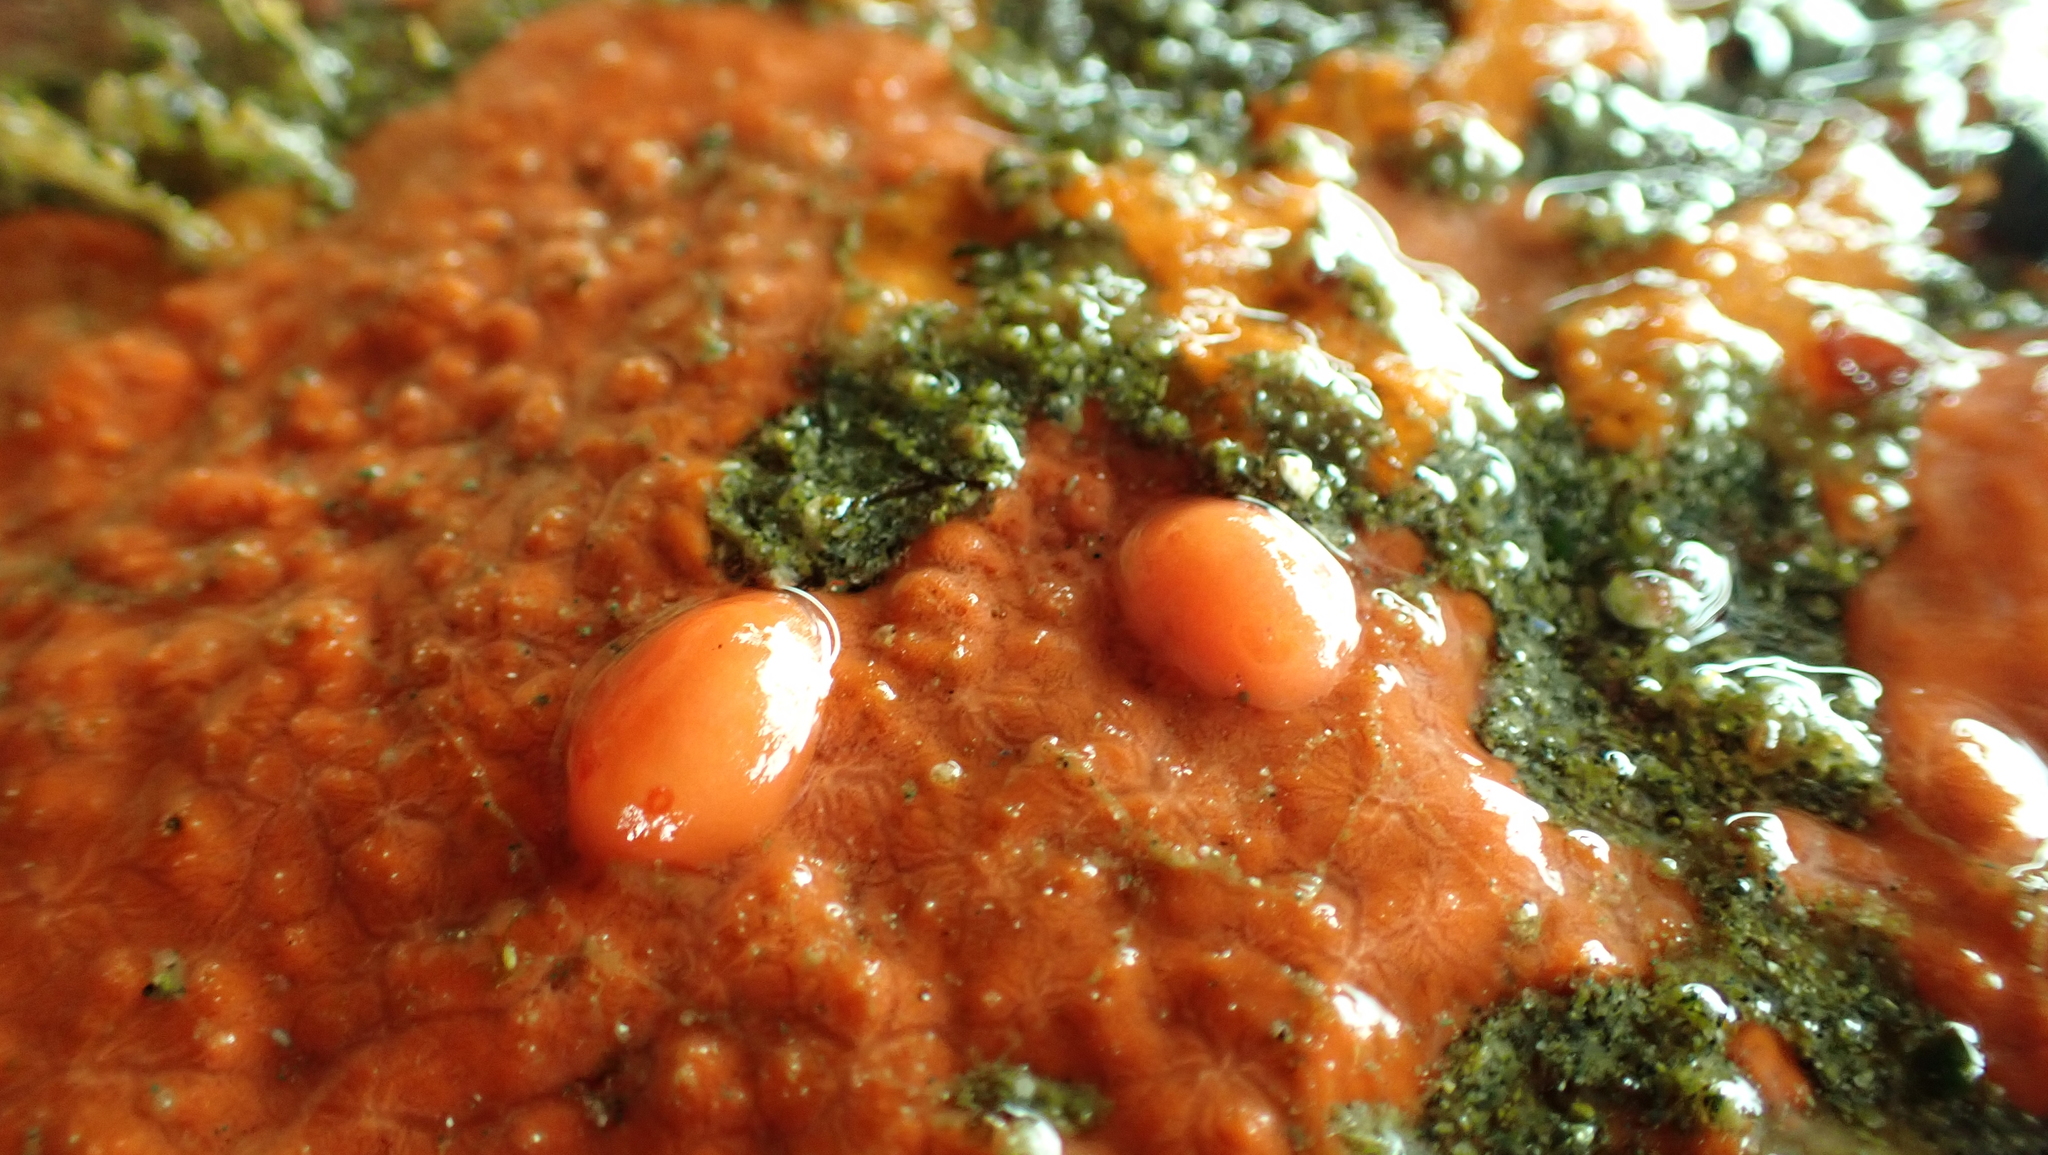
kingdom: Animalia
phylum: Mollusca
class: Gastropoda
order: Nudibranchia
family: Discodorididae
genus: Rostanga
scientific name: Rostanga pulchra
